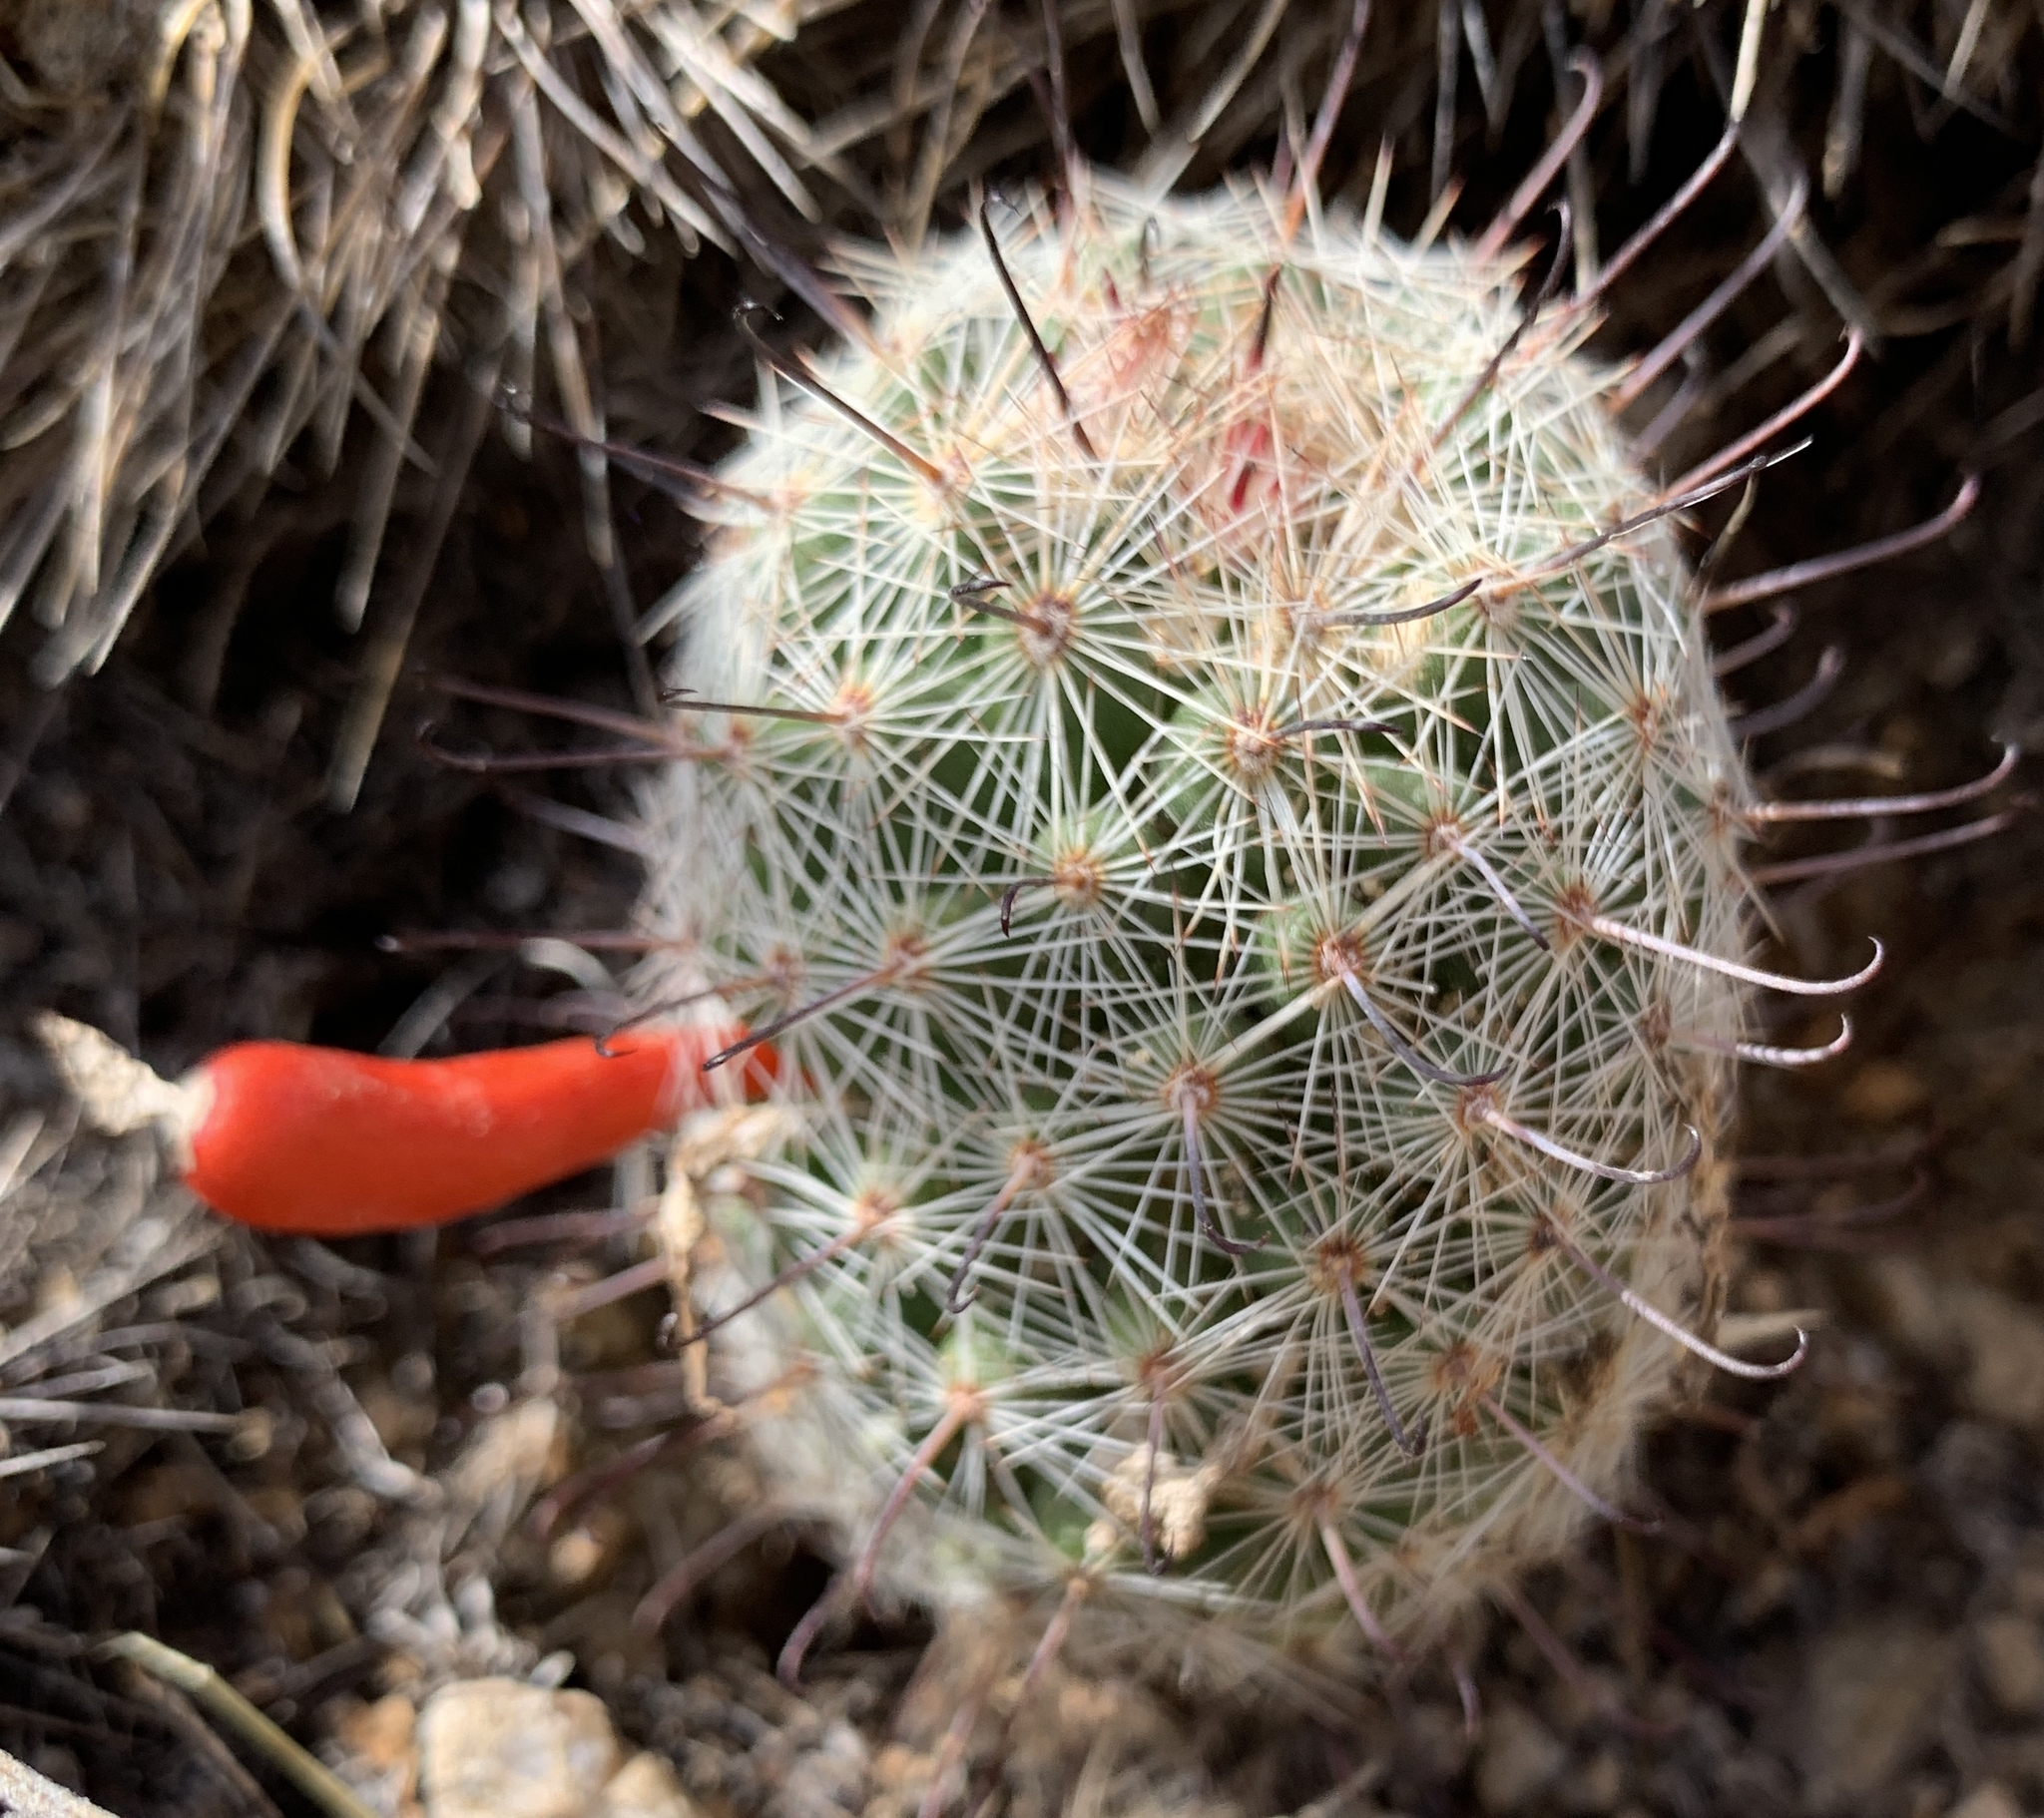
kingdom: Plantae
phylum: Tracheophyta
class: Magnoliopsida
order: Caryophyllales
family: Cactaceae
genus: Cochemiea
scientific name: Cochemiea grahamii
